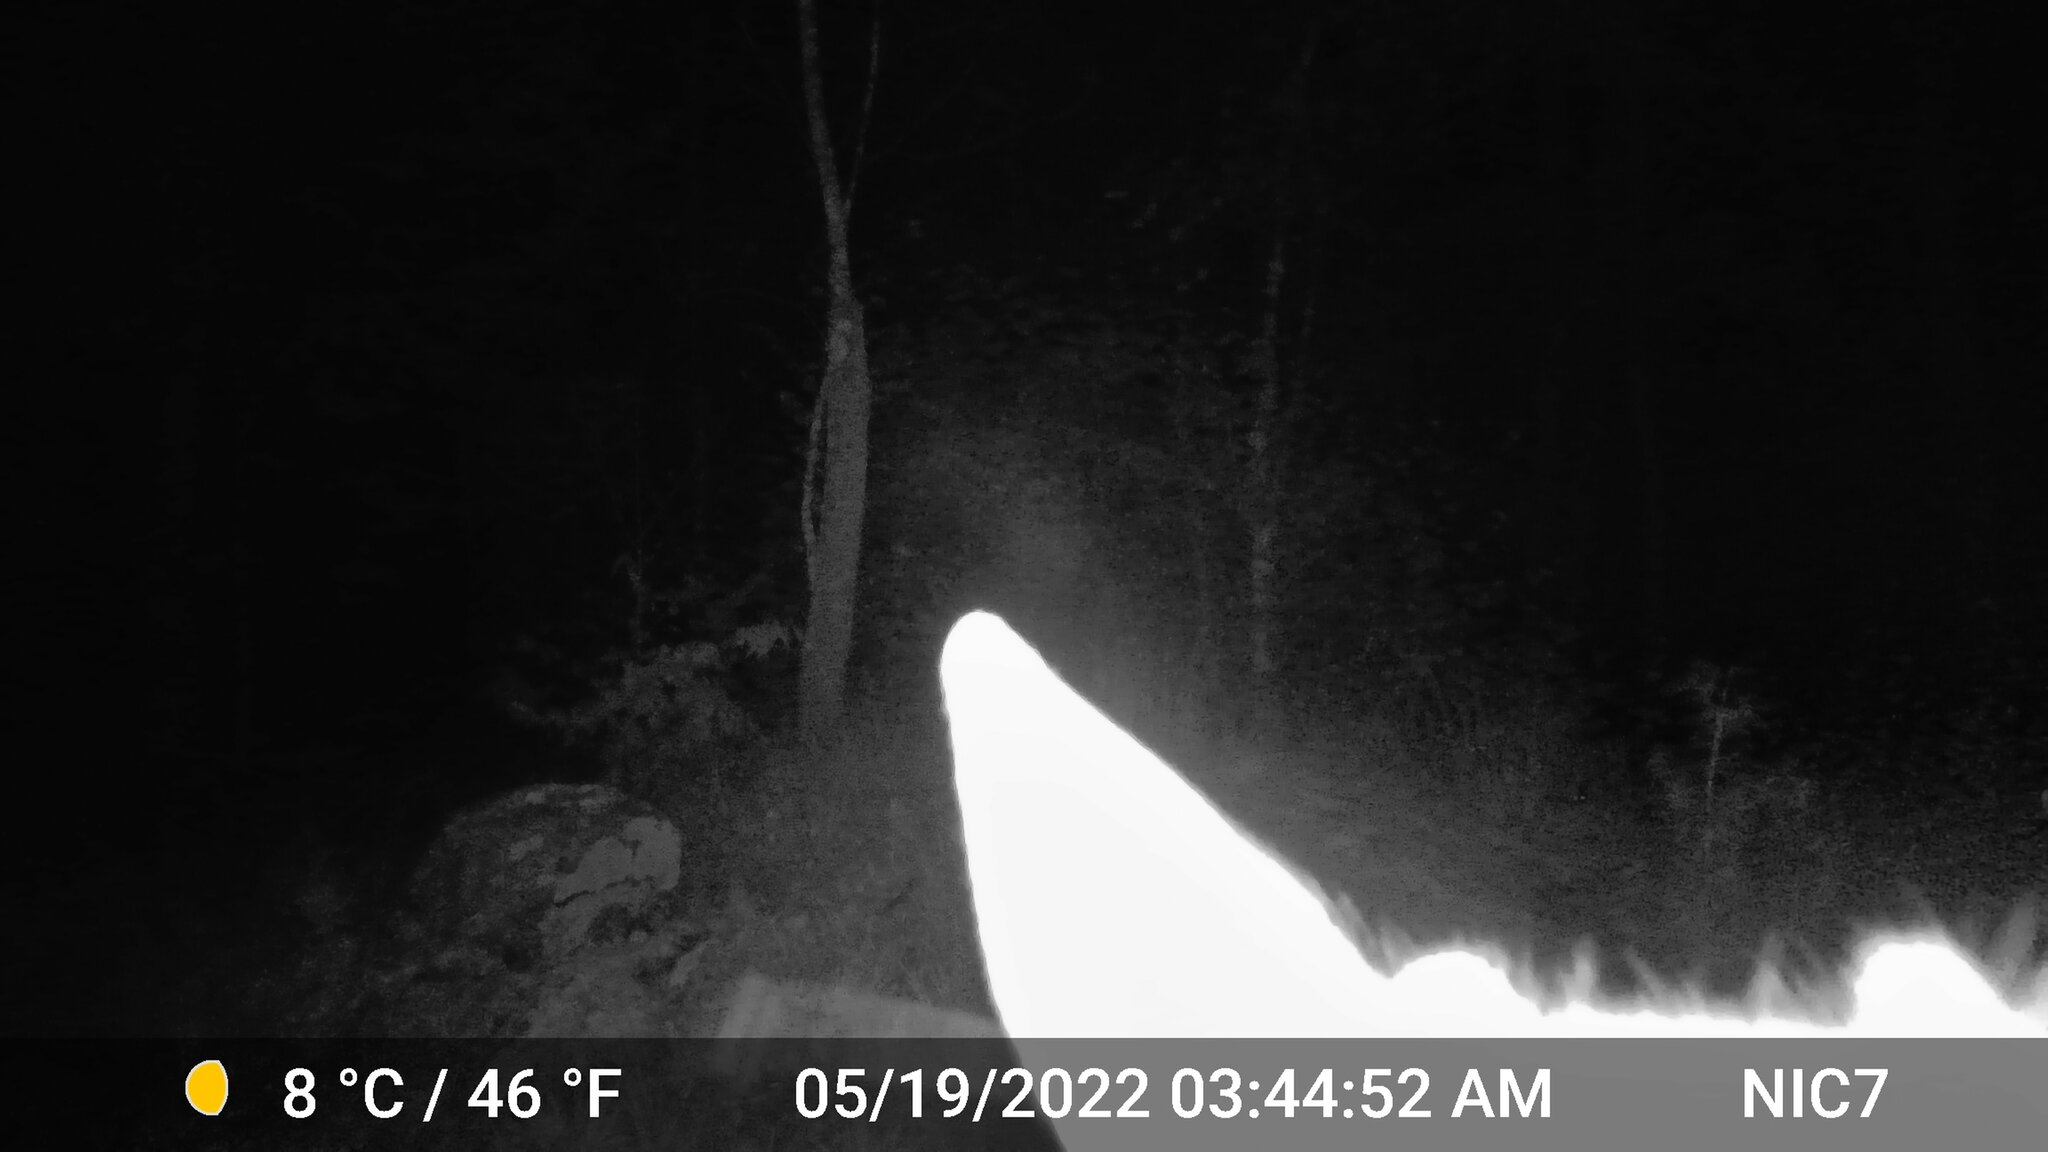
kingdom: Animalia
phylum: Chordata
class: Mammalia
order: Artiodactyla
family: Cervidae
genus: Odocoileus
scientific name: Odocoileus virginianus
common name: White-tailed deer
